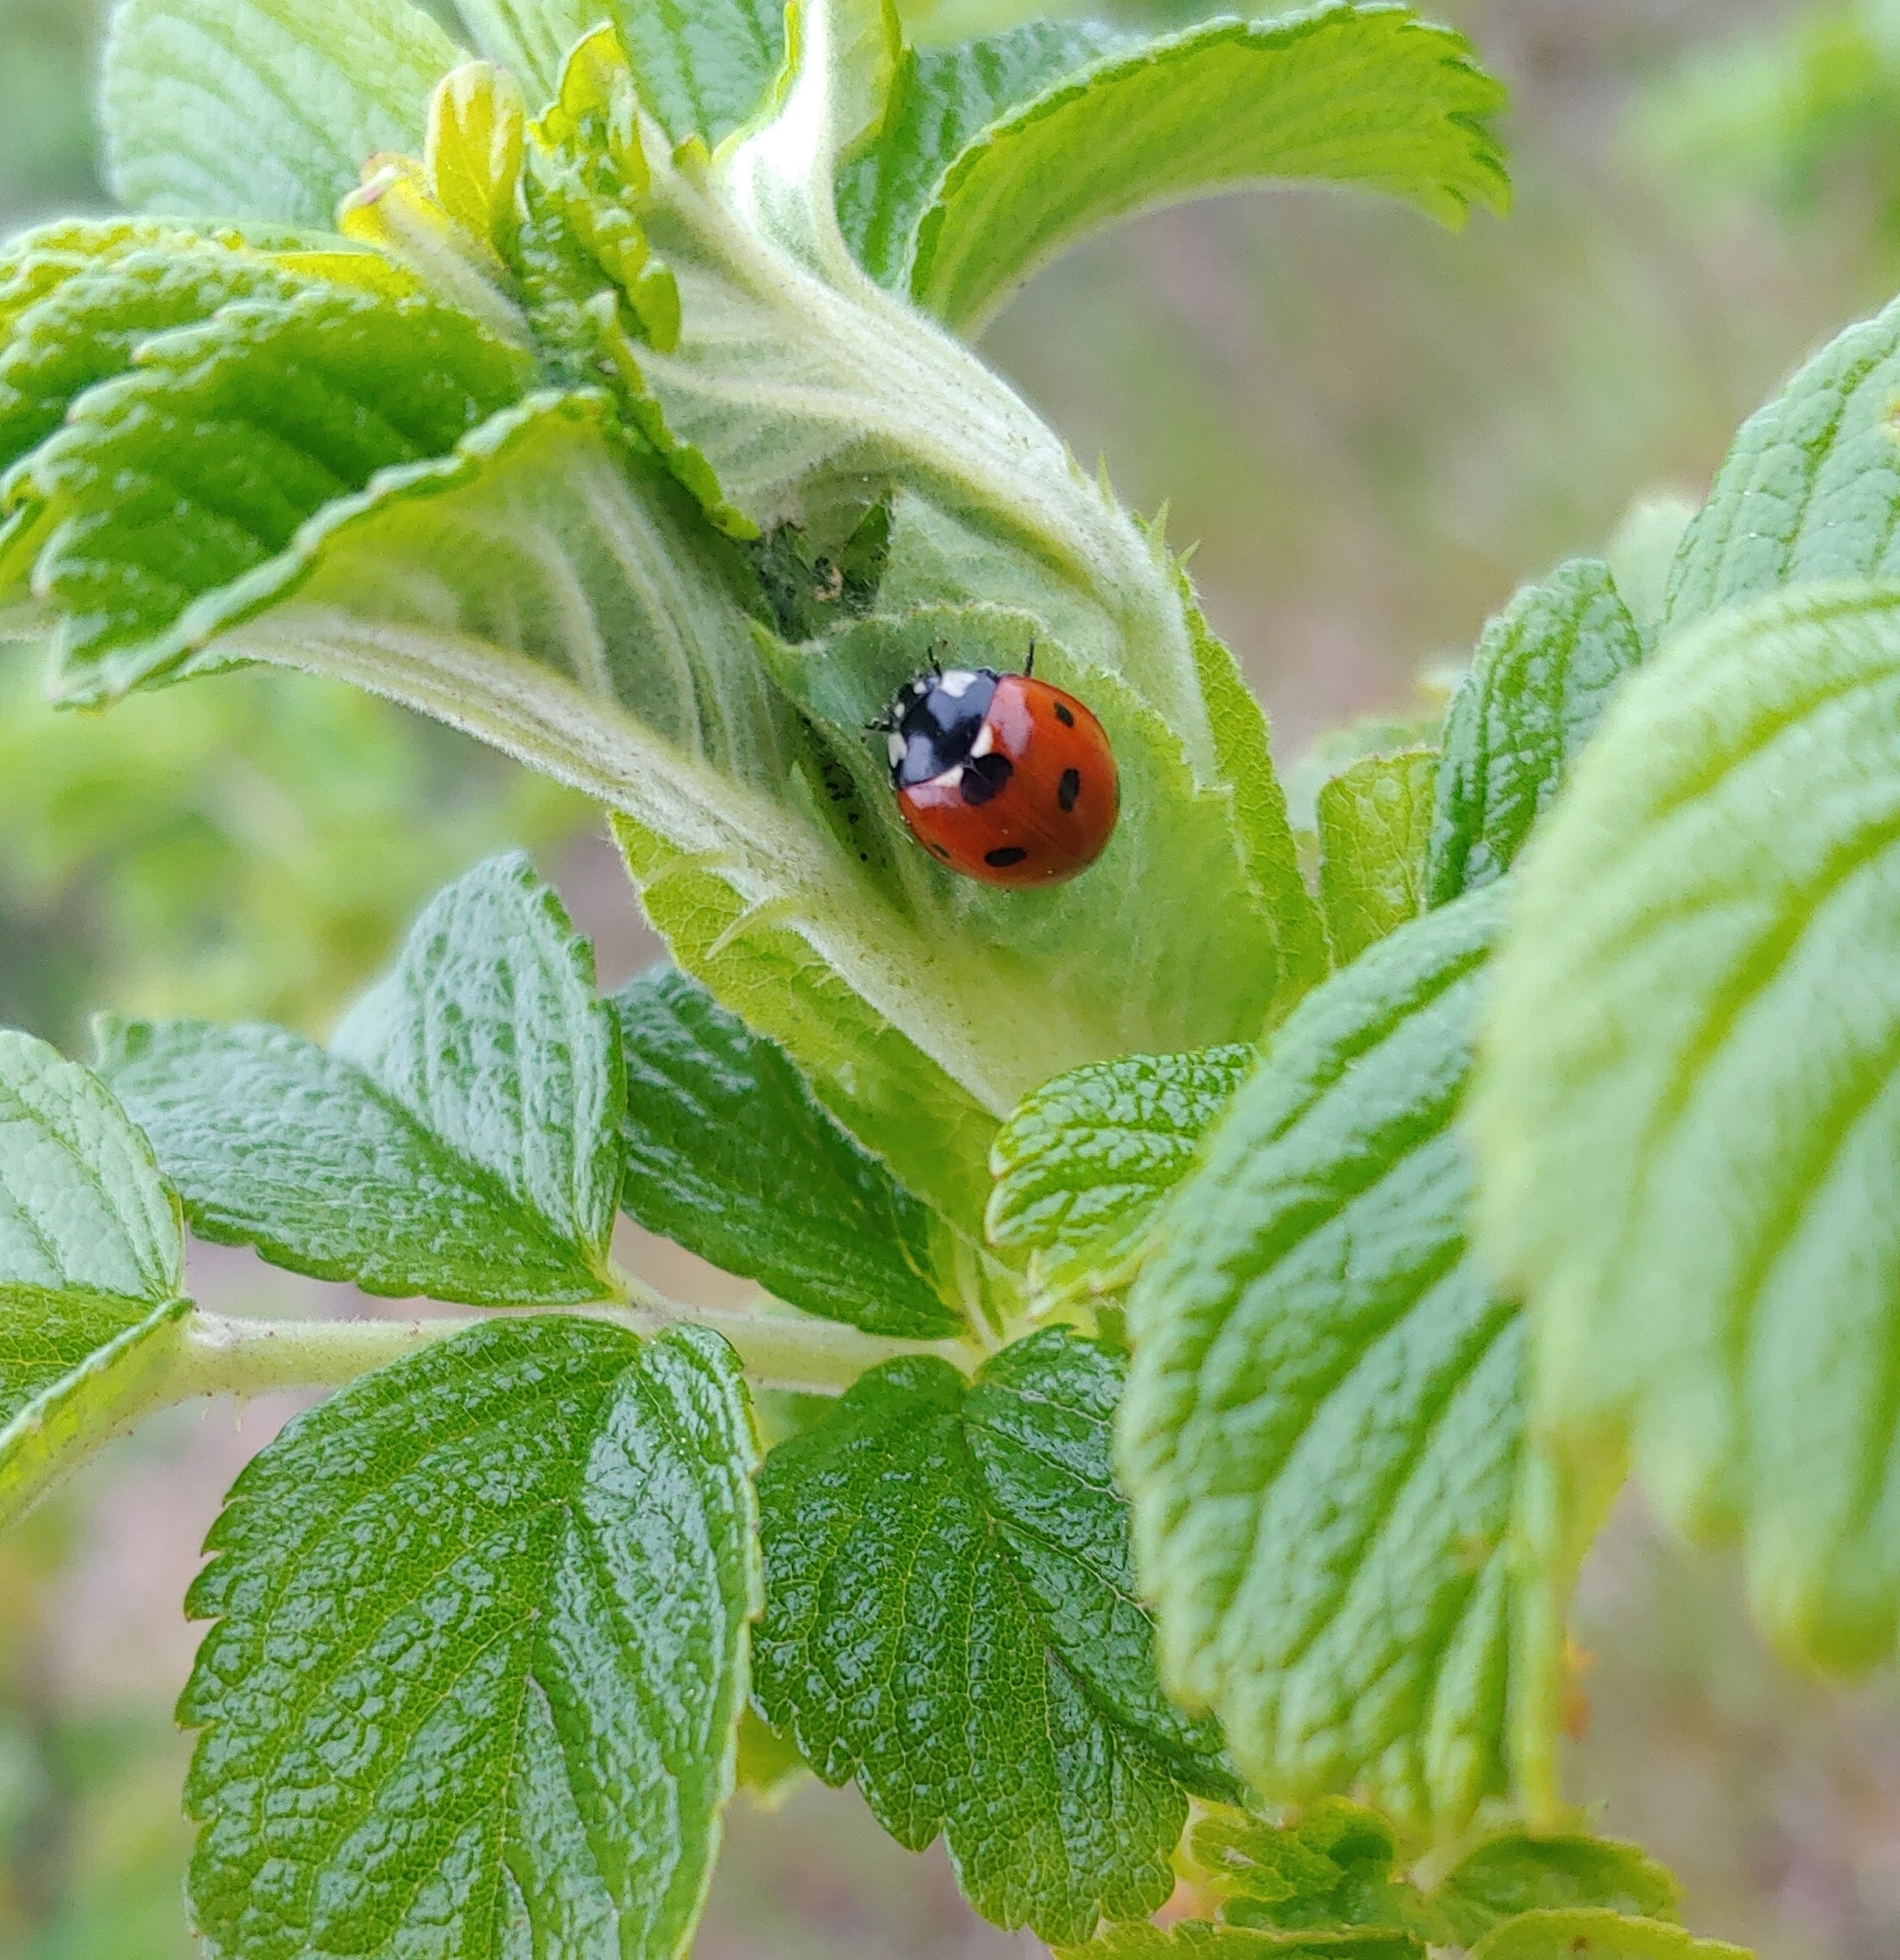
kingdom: Animalia
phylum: Arthropoda
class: Insecta
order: Coleoptera
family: Coccinellidae
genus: Coccinella
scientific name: Coccinella septempunctata
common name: Sevenspotted lady beetle
